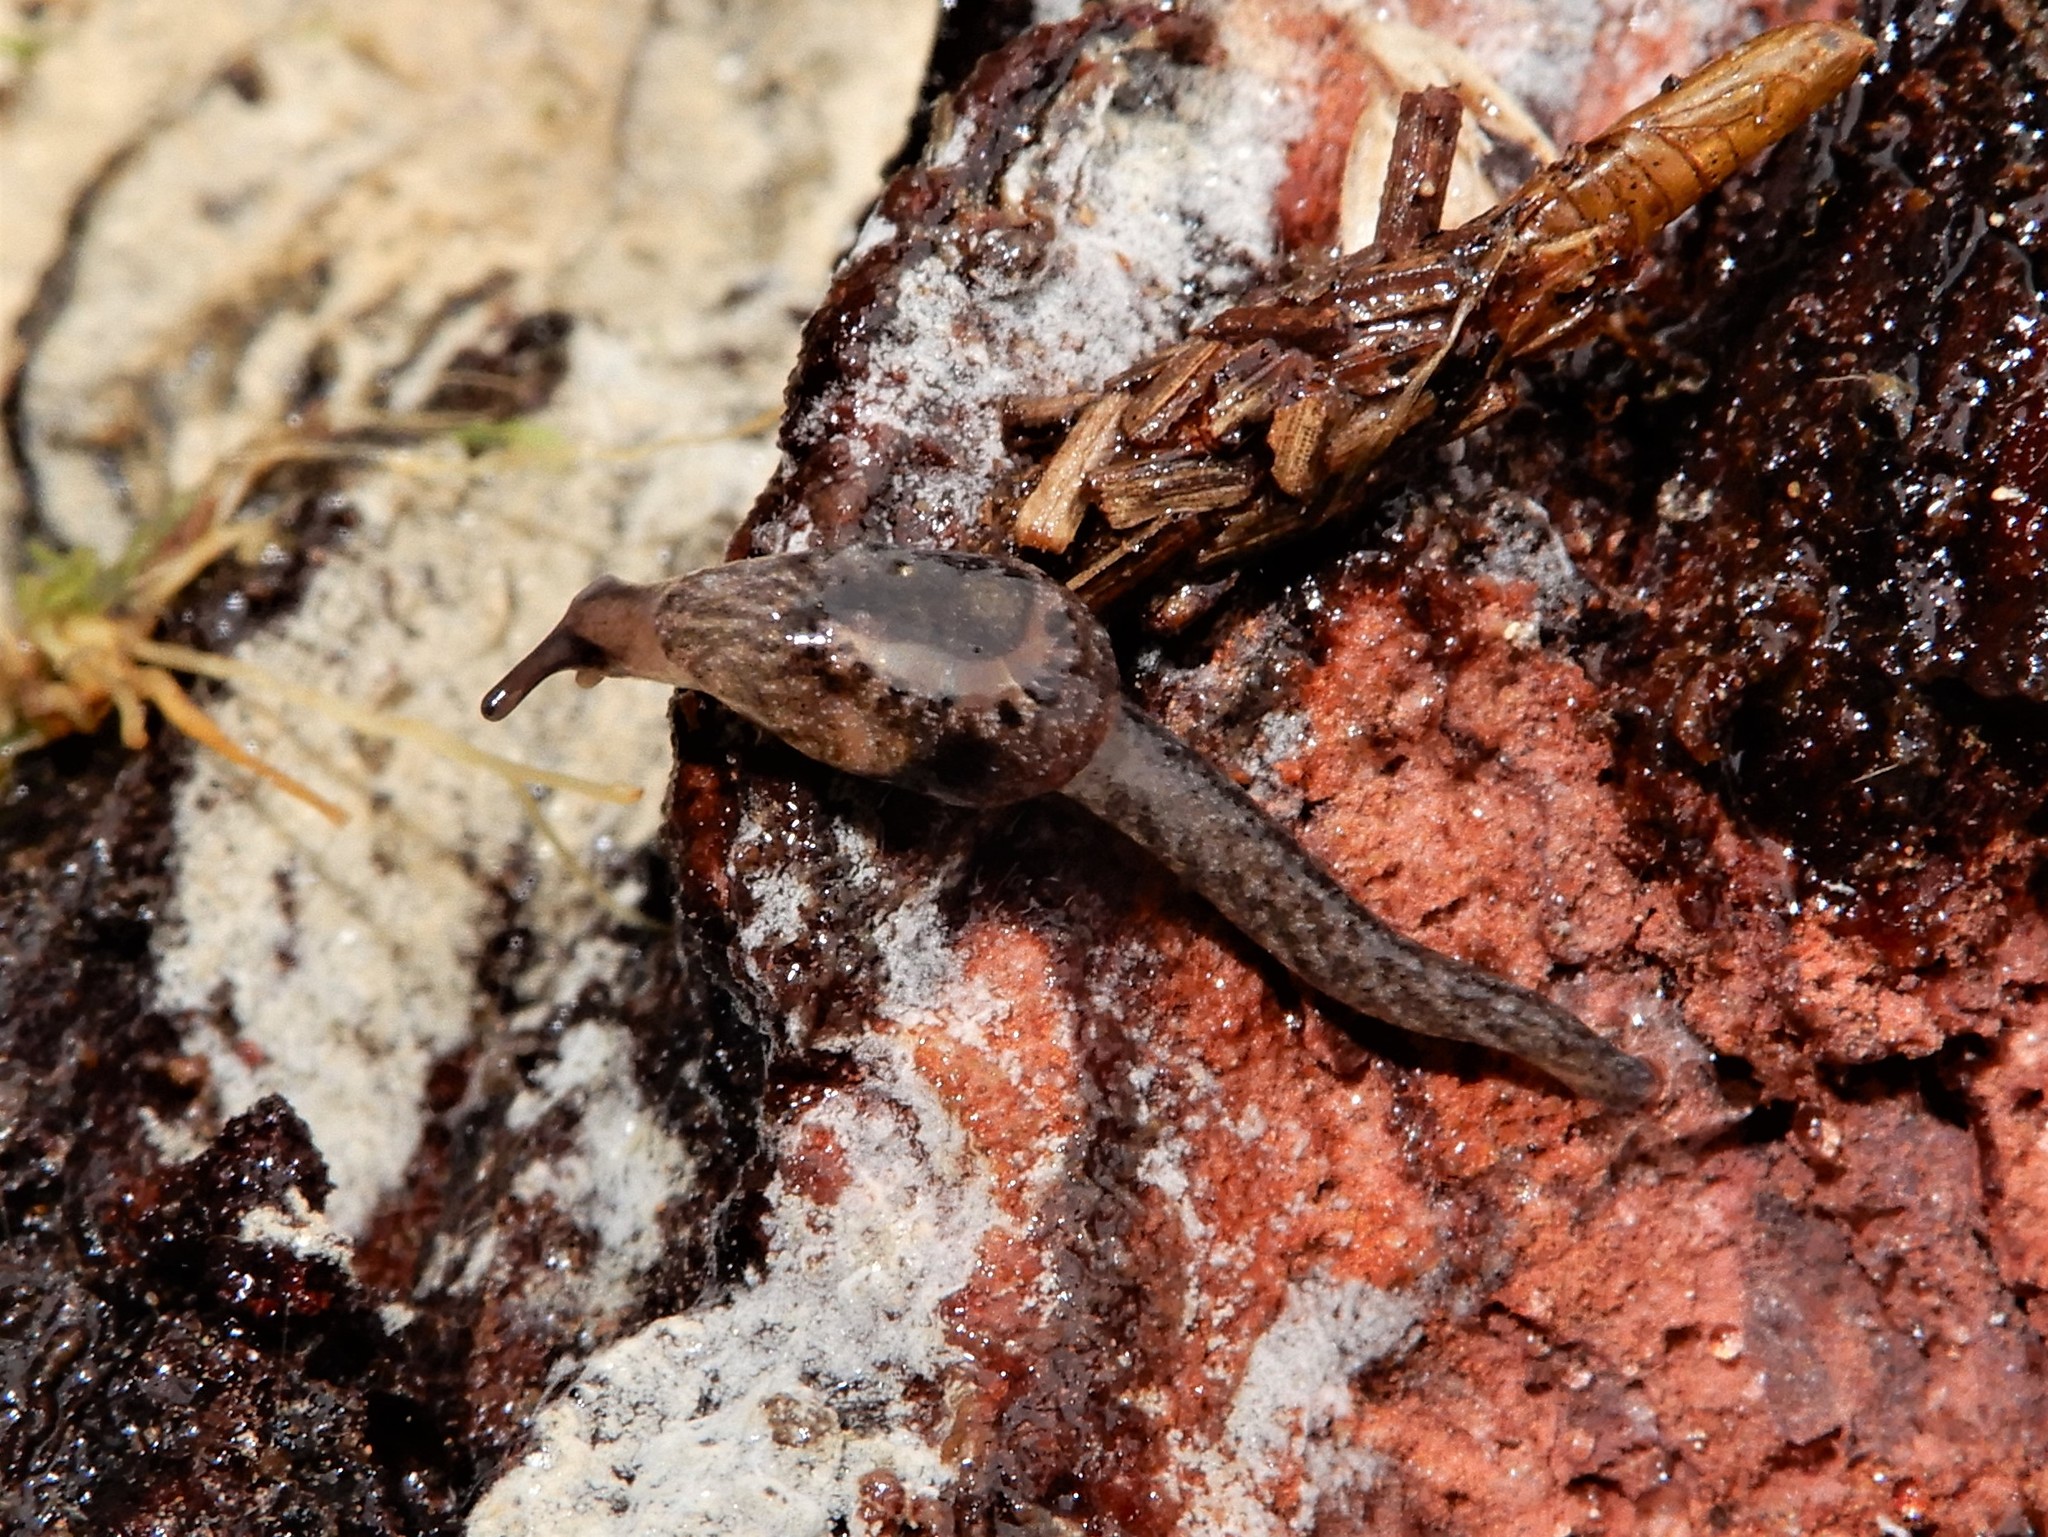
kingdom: Animalia
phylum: Mollusca
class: Gastropoda
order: Stylommatophora
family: Charopidae
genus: Otoconcha
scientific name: Otoconcha dimidiata
